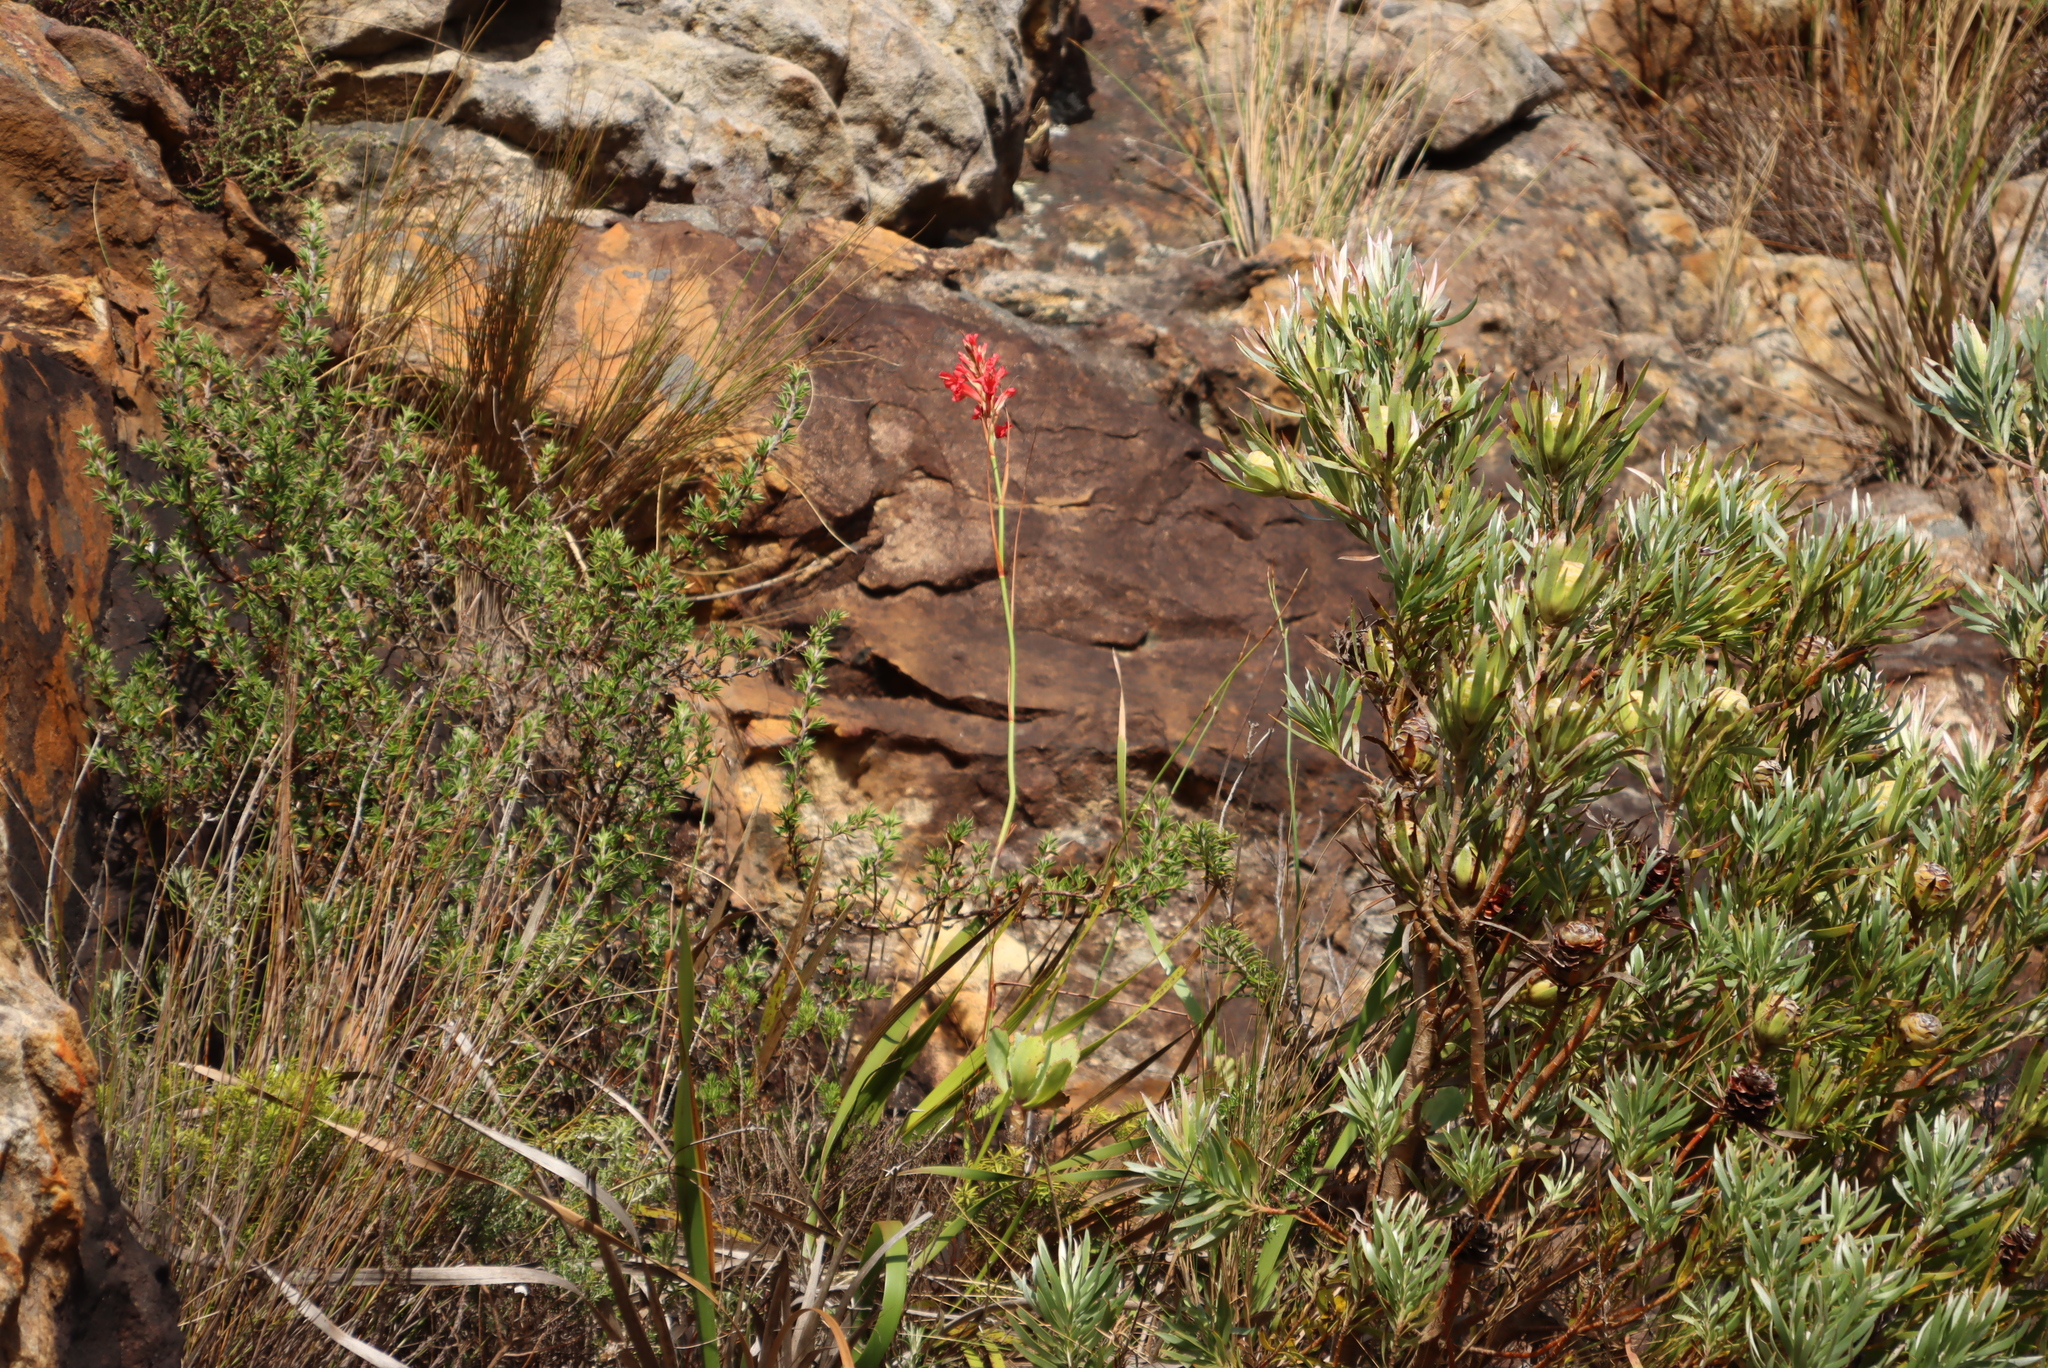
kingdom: Plantae
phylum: Tracheophyta
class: Liliopsida
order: Asparagales
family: Iridaceae
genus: Tritoniopsis
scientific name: Tritoniopsis triticea
